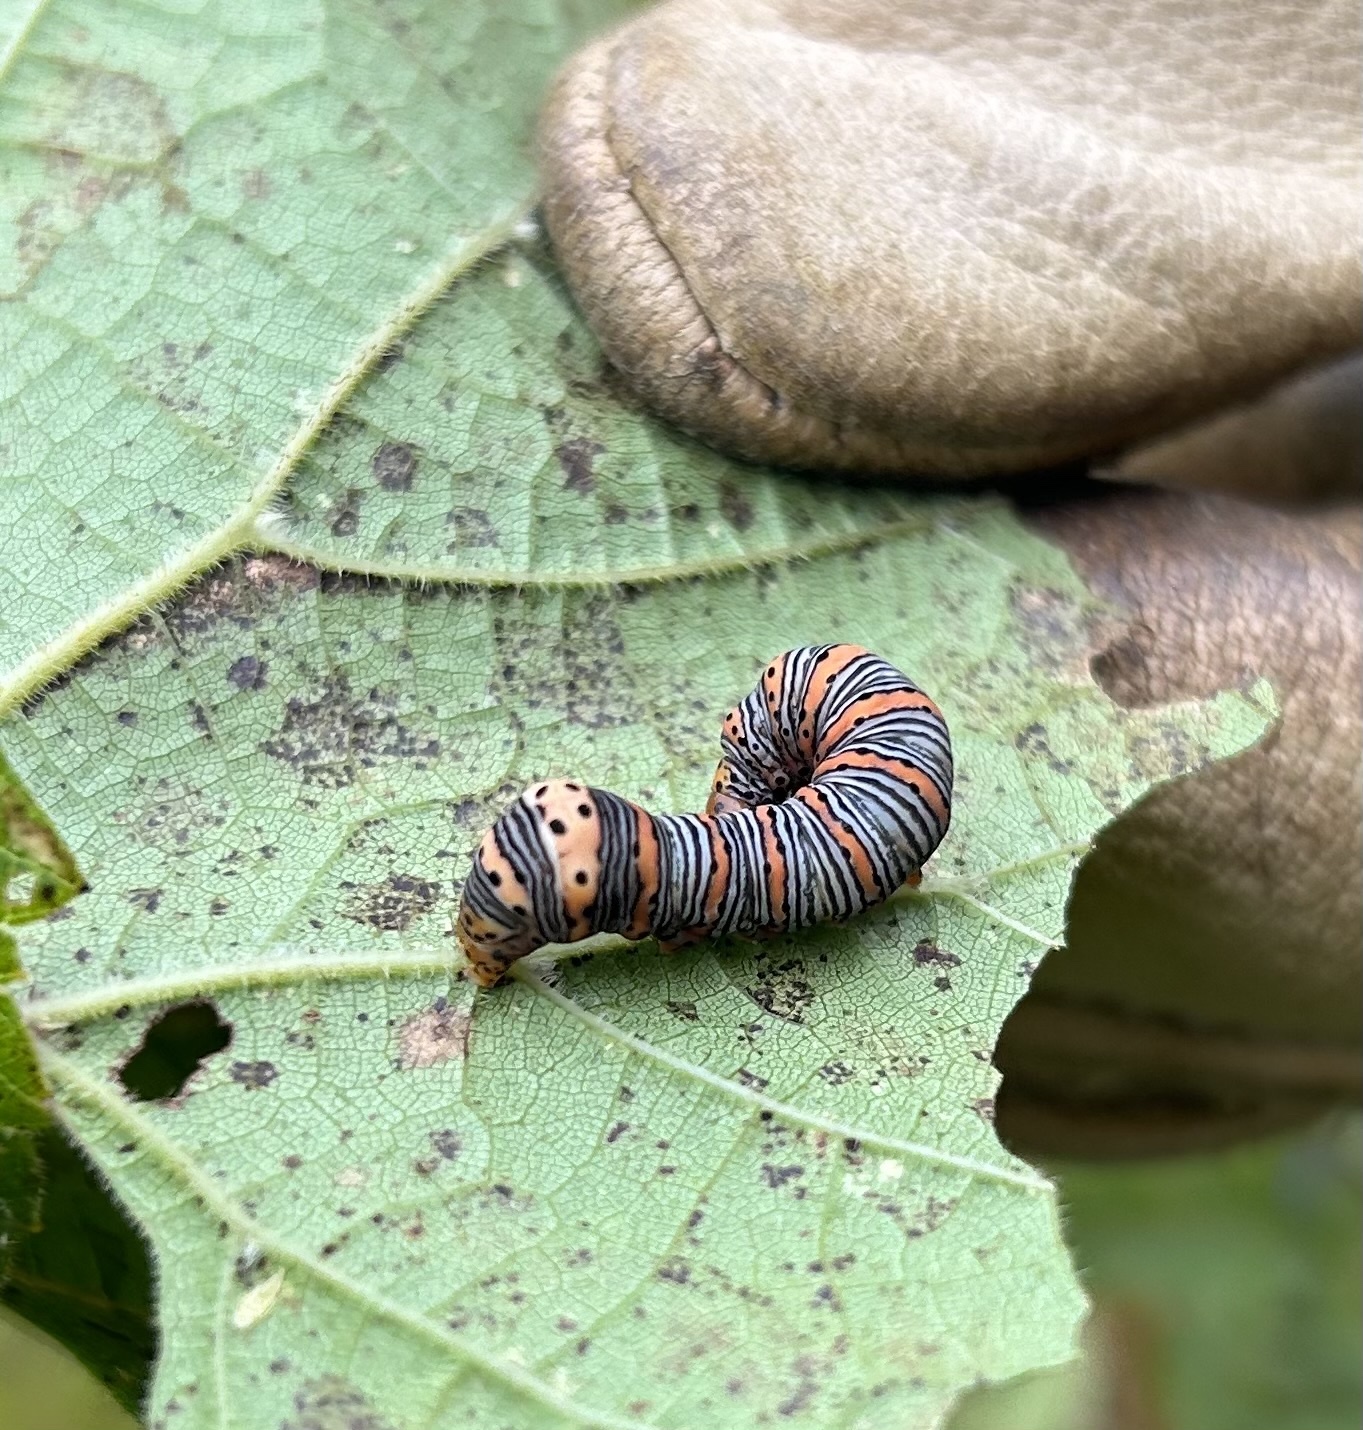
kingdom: Animalia
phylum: Arthropoda
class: Insecta
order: Lepidoptera
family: Noctuidae
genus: Eudryas
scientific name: Eudryas grata
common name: Beautiful wood-nymph
